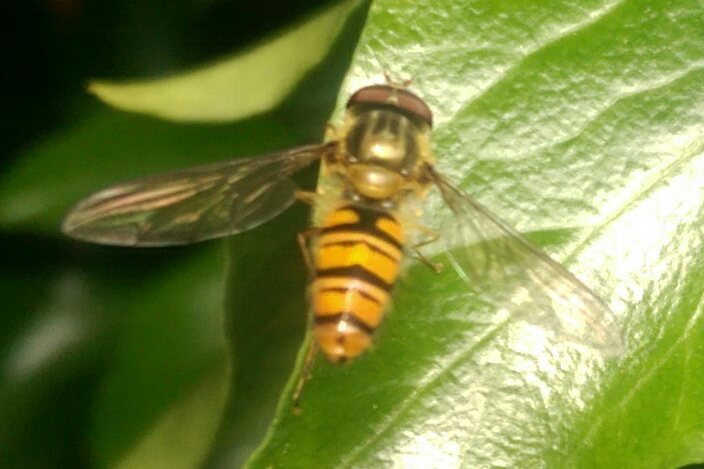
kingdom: Animalia
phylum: Arthropoda
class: Insecta
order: Diptera
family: Syrphidae
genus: Episyrphus
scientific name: Episyrphus balteatus
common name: Marmalade hoverfly
